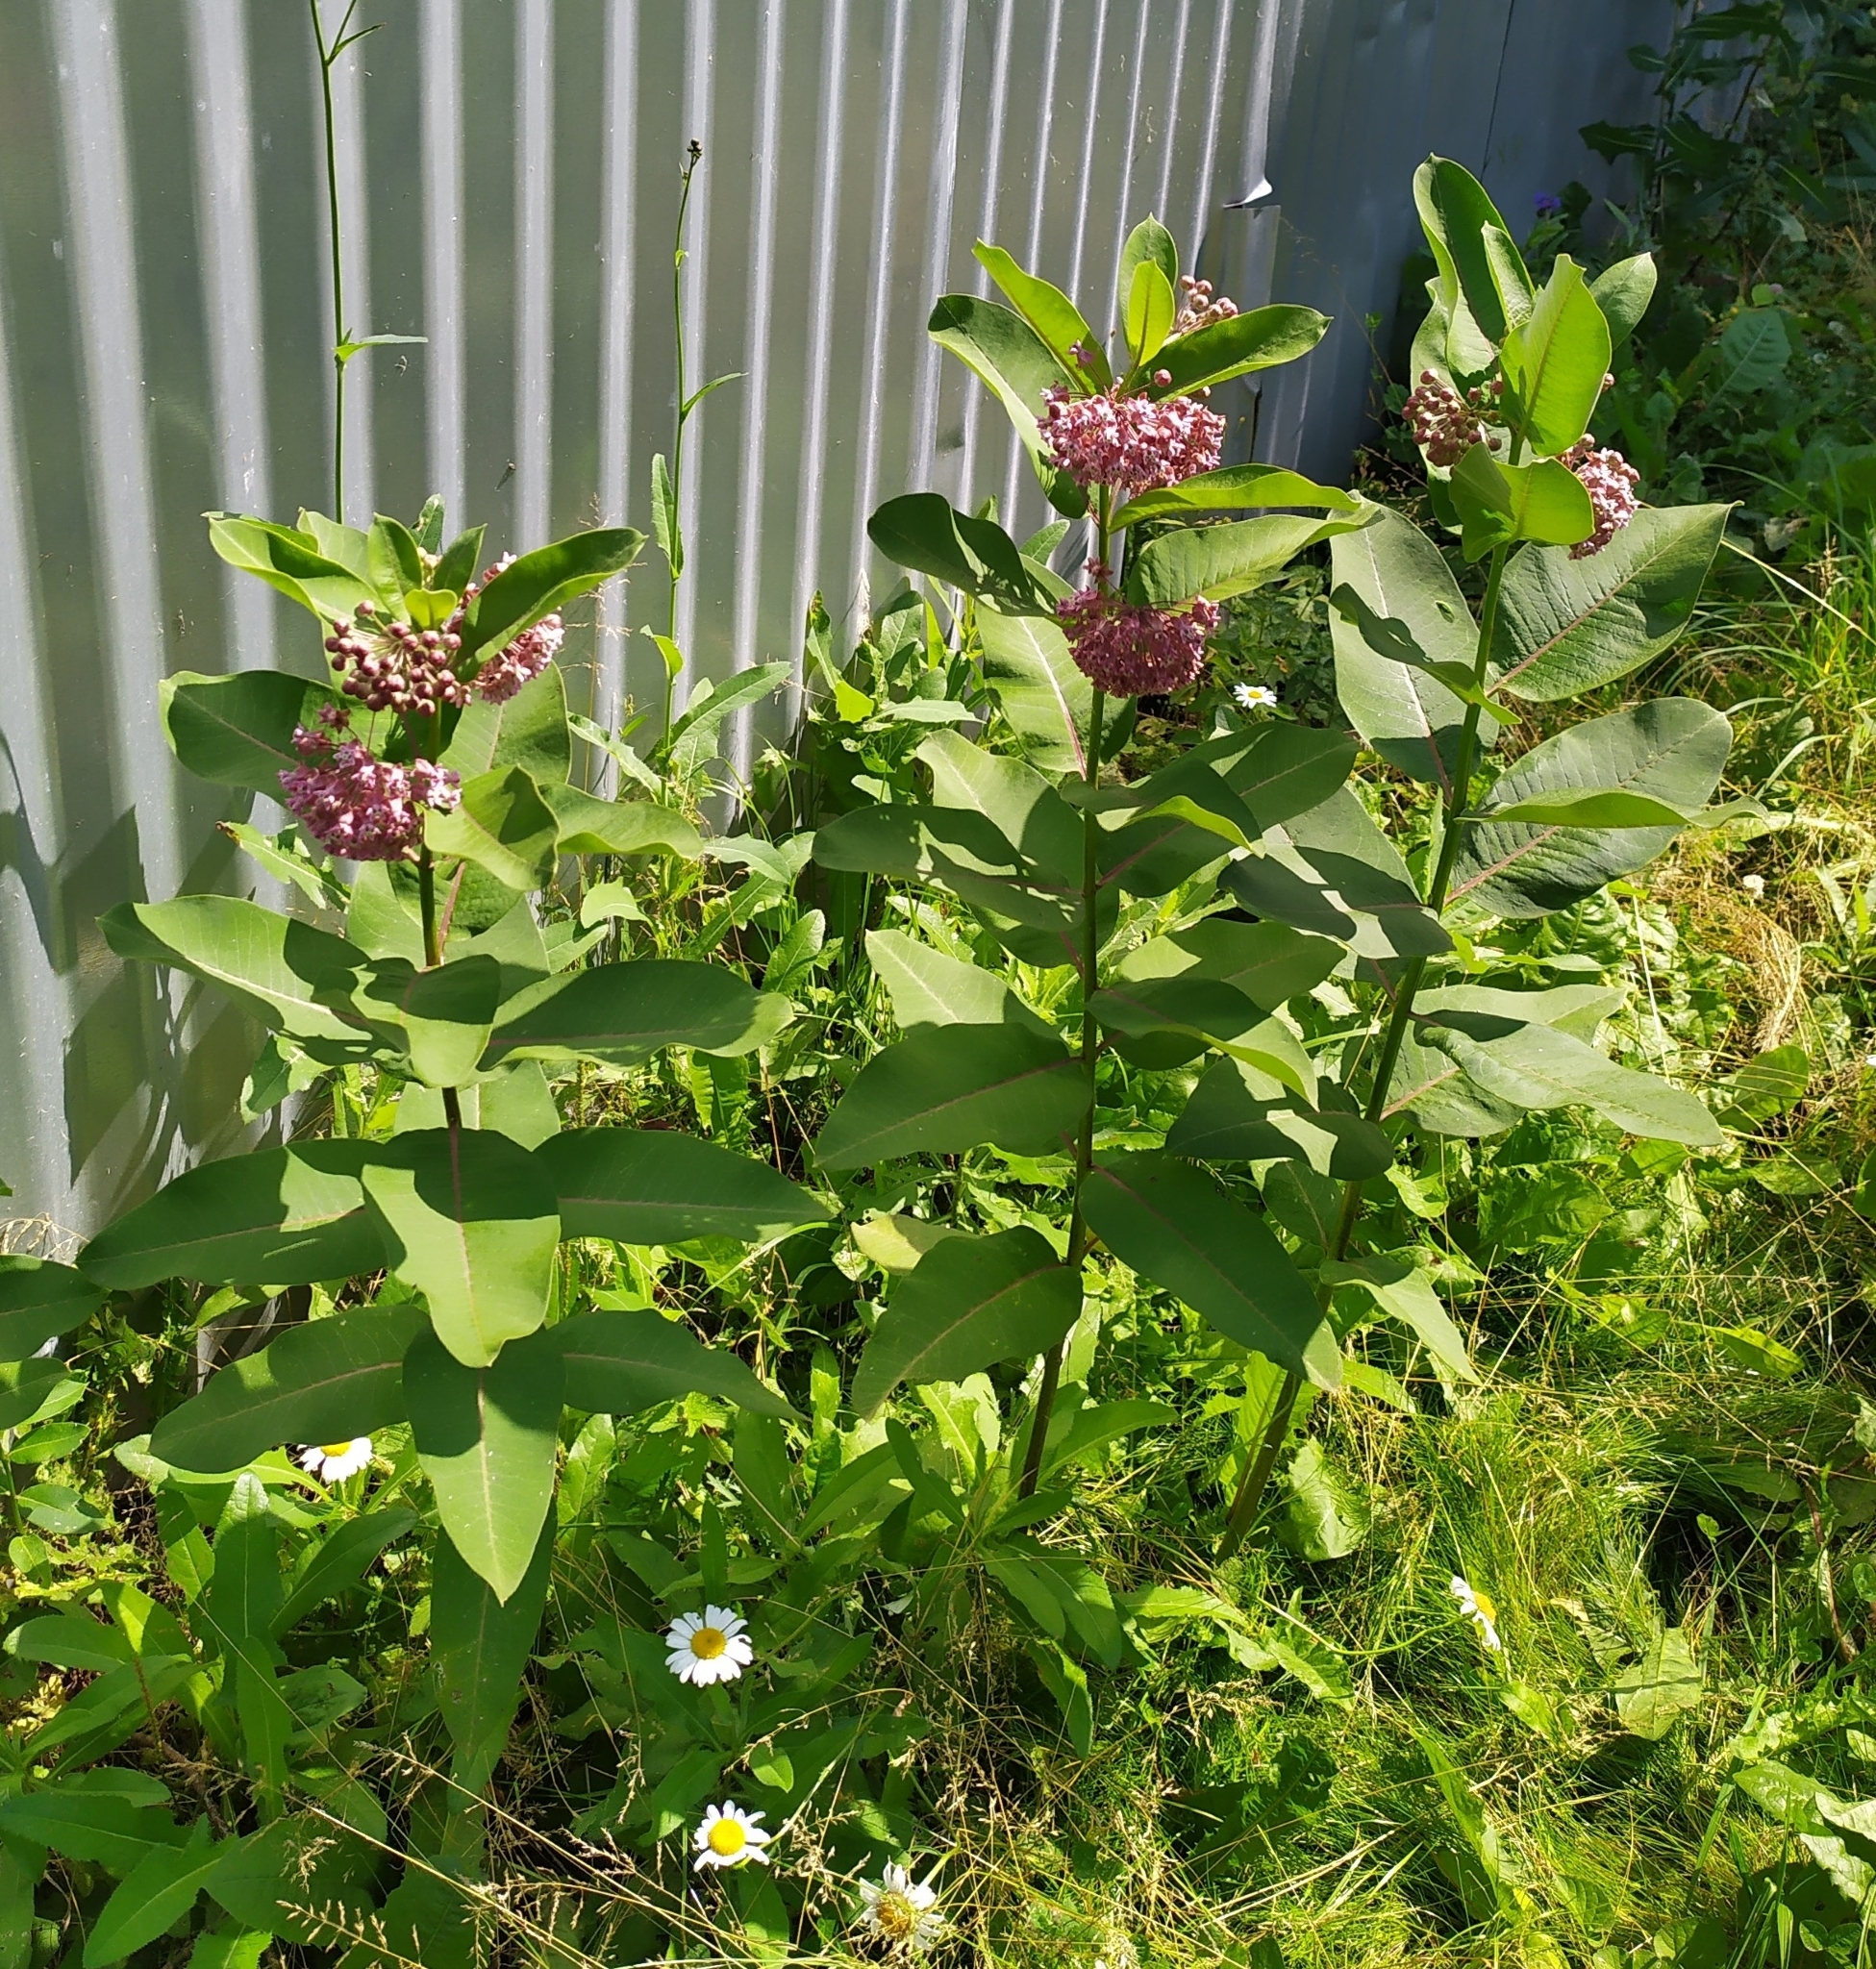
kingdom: Plantae
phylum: Tracheophyta
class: Magnoliopsida
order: Gentianales
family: Apocynaceae
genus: Asclepias
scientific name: Asclepias syriaca
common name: Common milkweed
